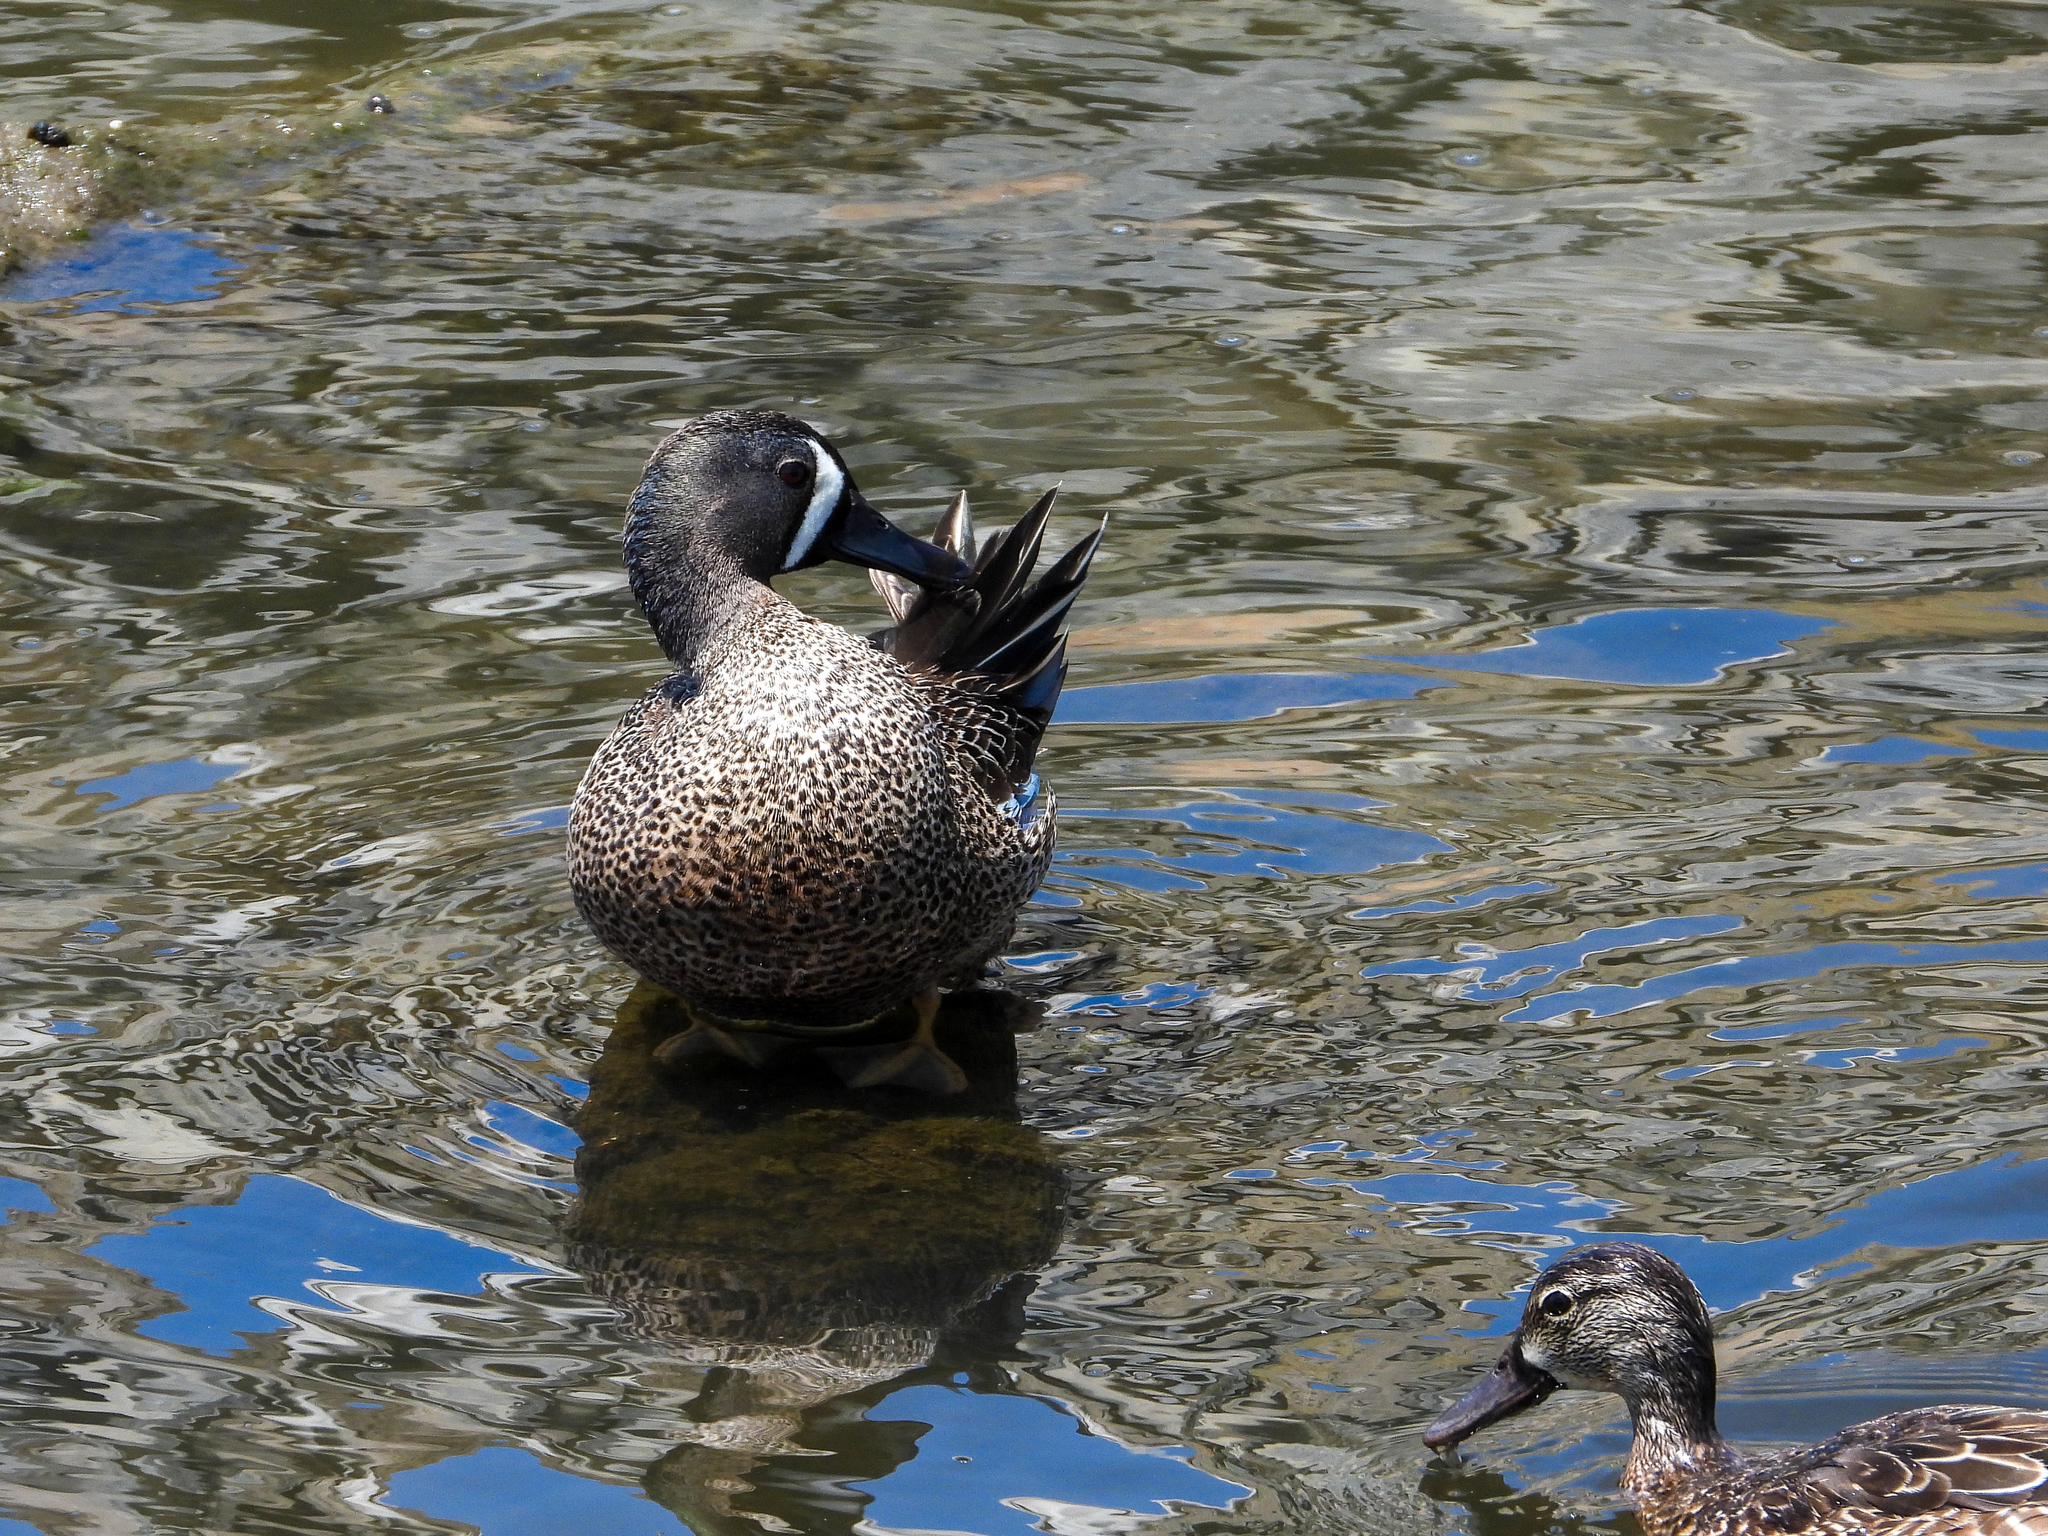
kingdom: Animalia
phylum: Chordata
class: Aves
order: Anseriformes
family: Anatidae
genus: Spatula
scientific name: Spatula discors
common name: Blue-winged teal
